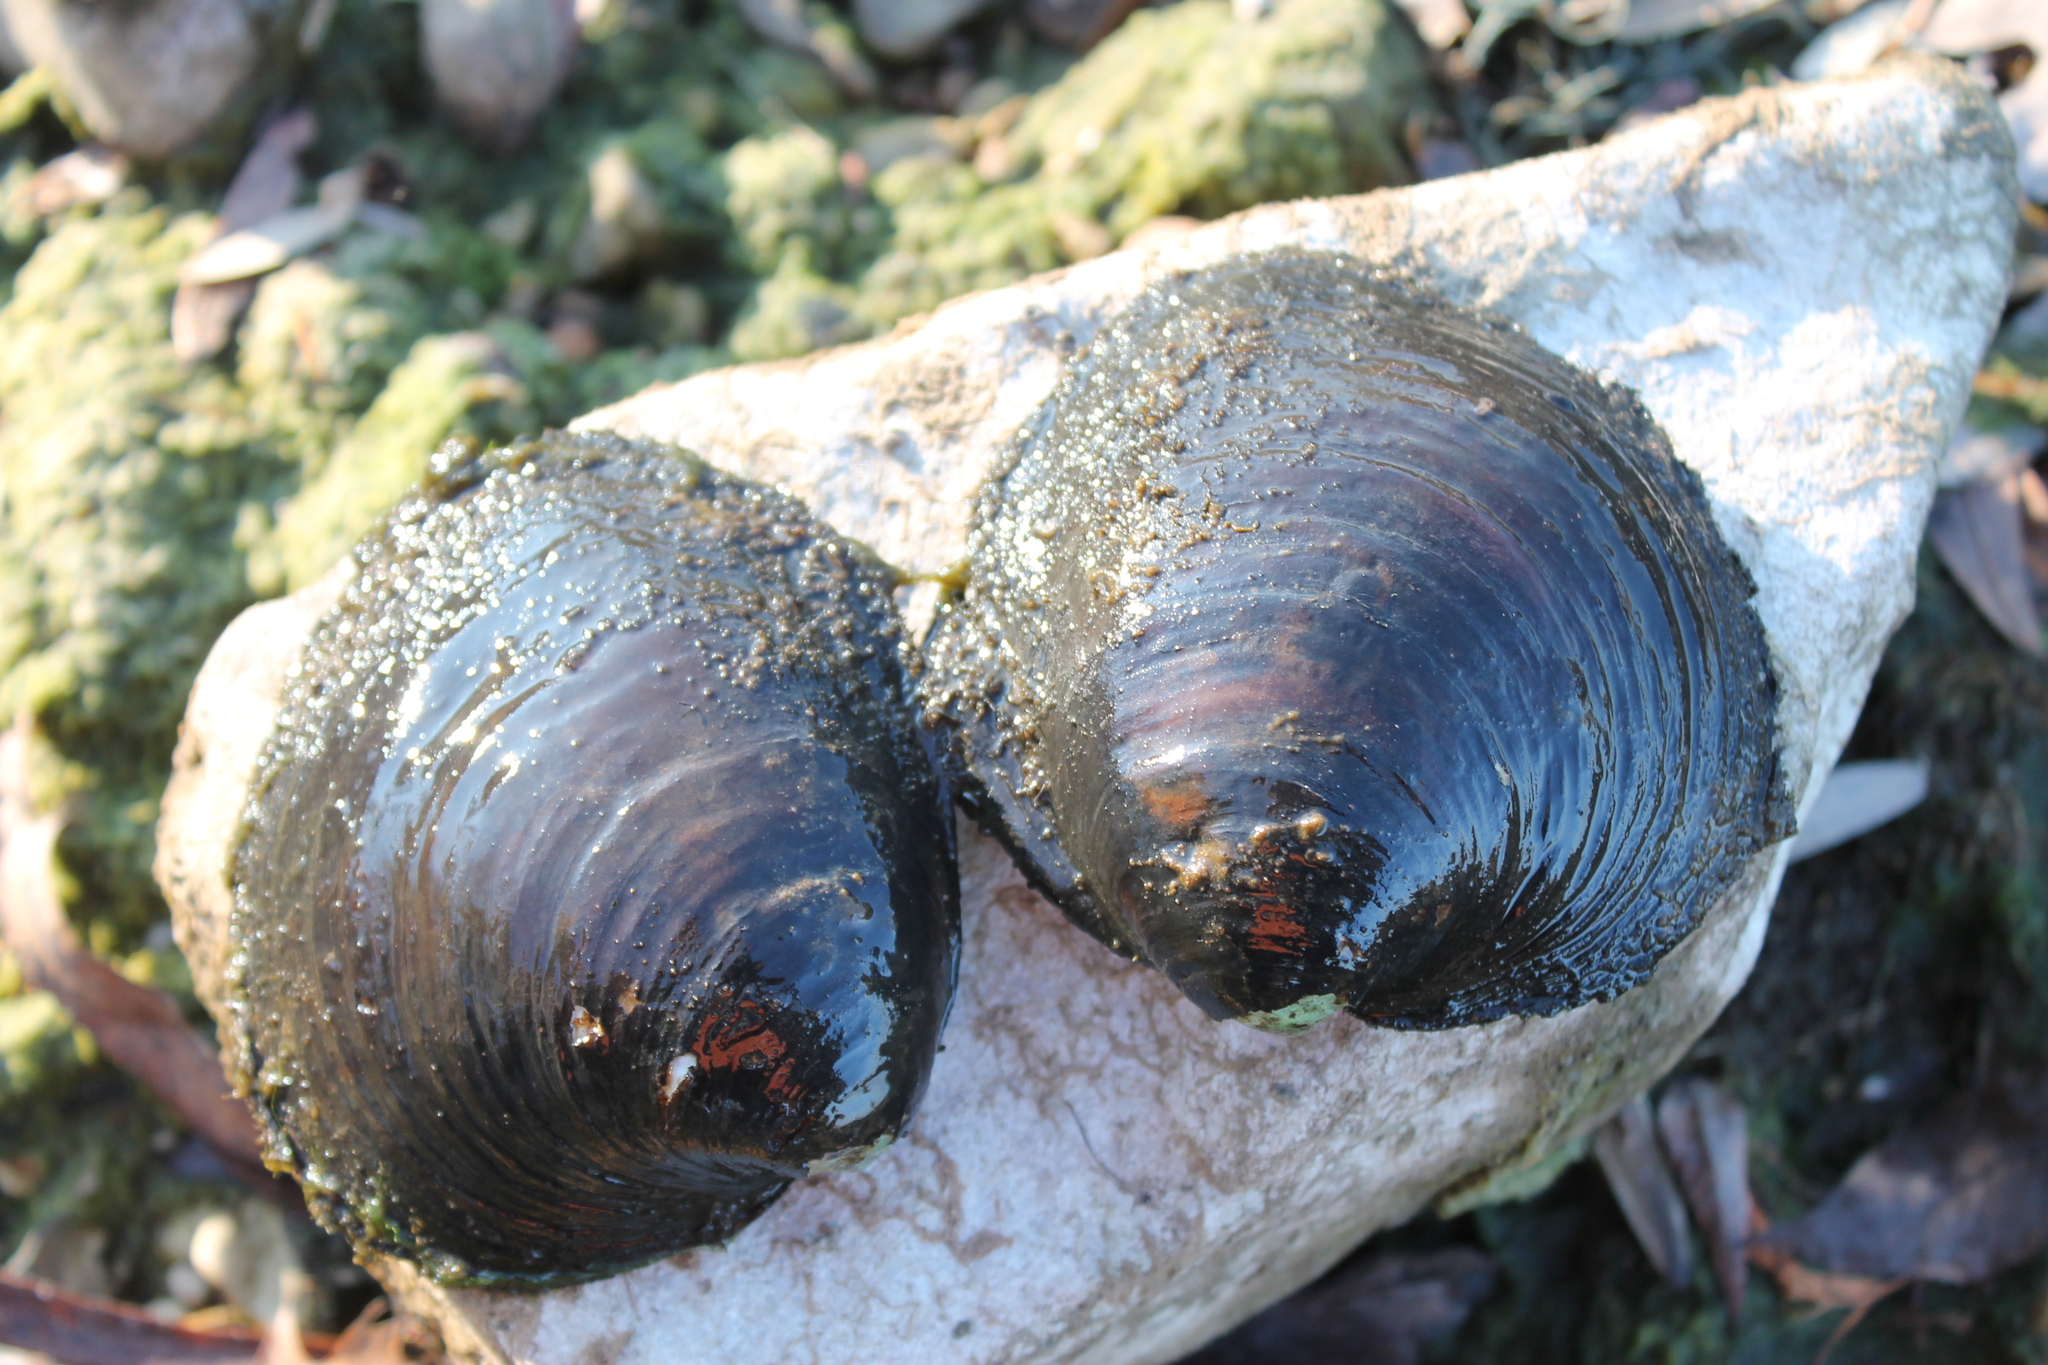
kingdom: Animalia
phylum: Mollusca
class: Bivalvia
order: Unionida
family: Unionidae
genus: Reginaia
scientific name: Reginaia ebenus
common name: Ebonyshell
